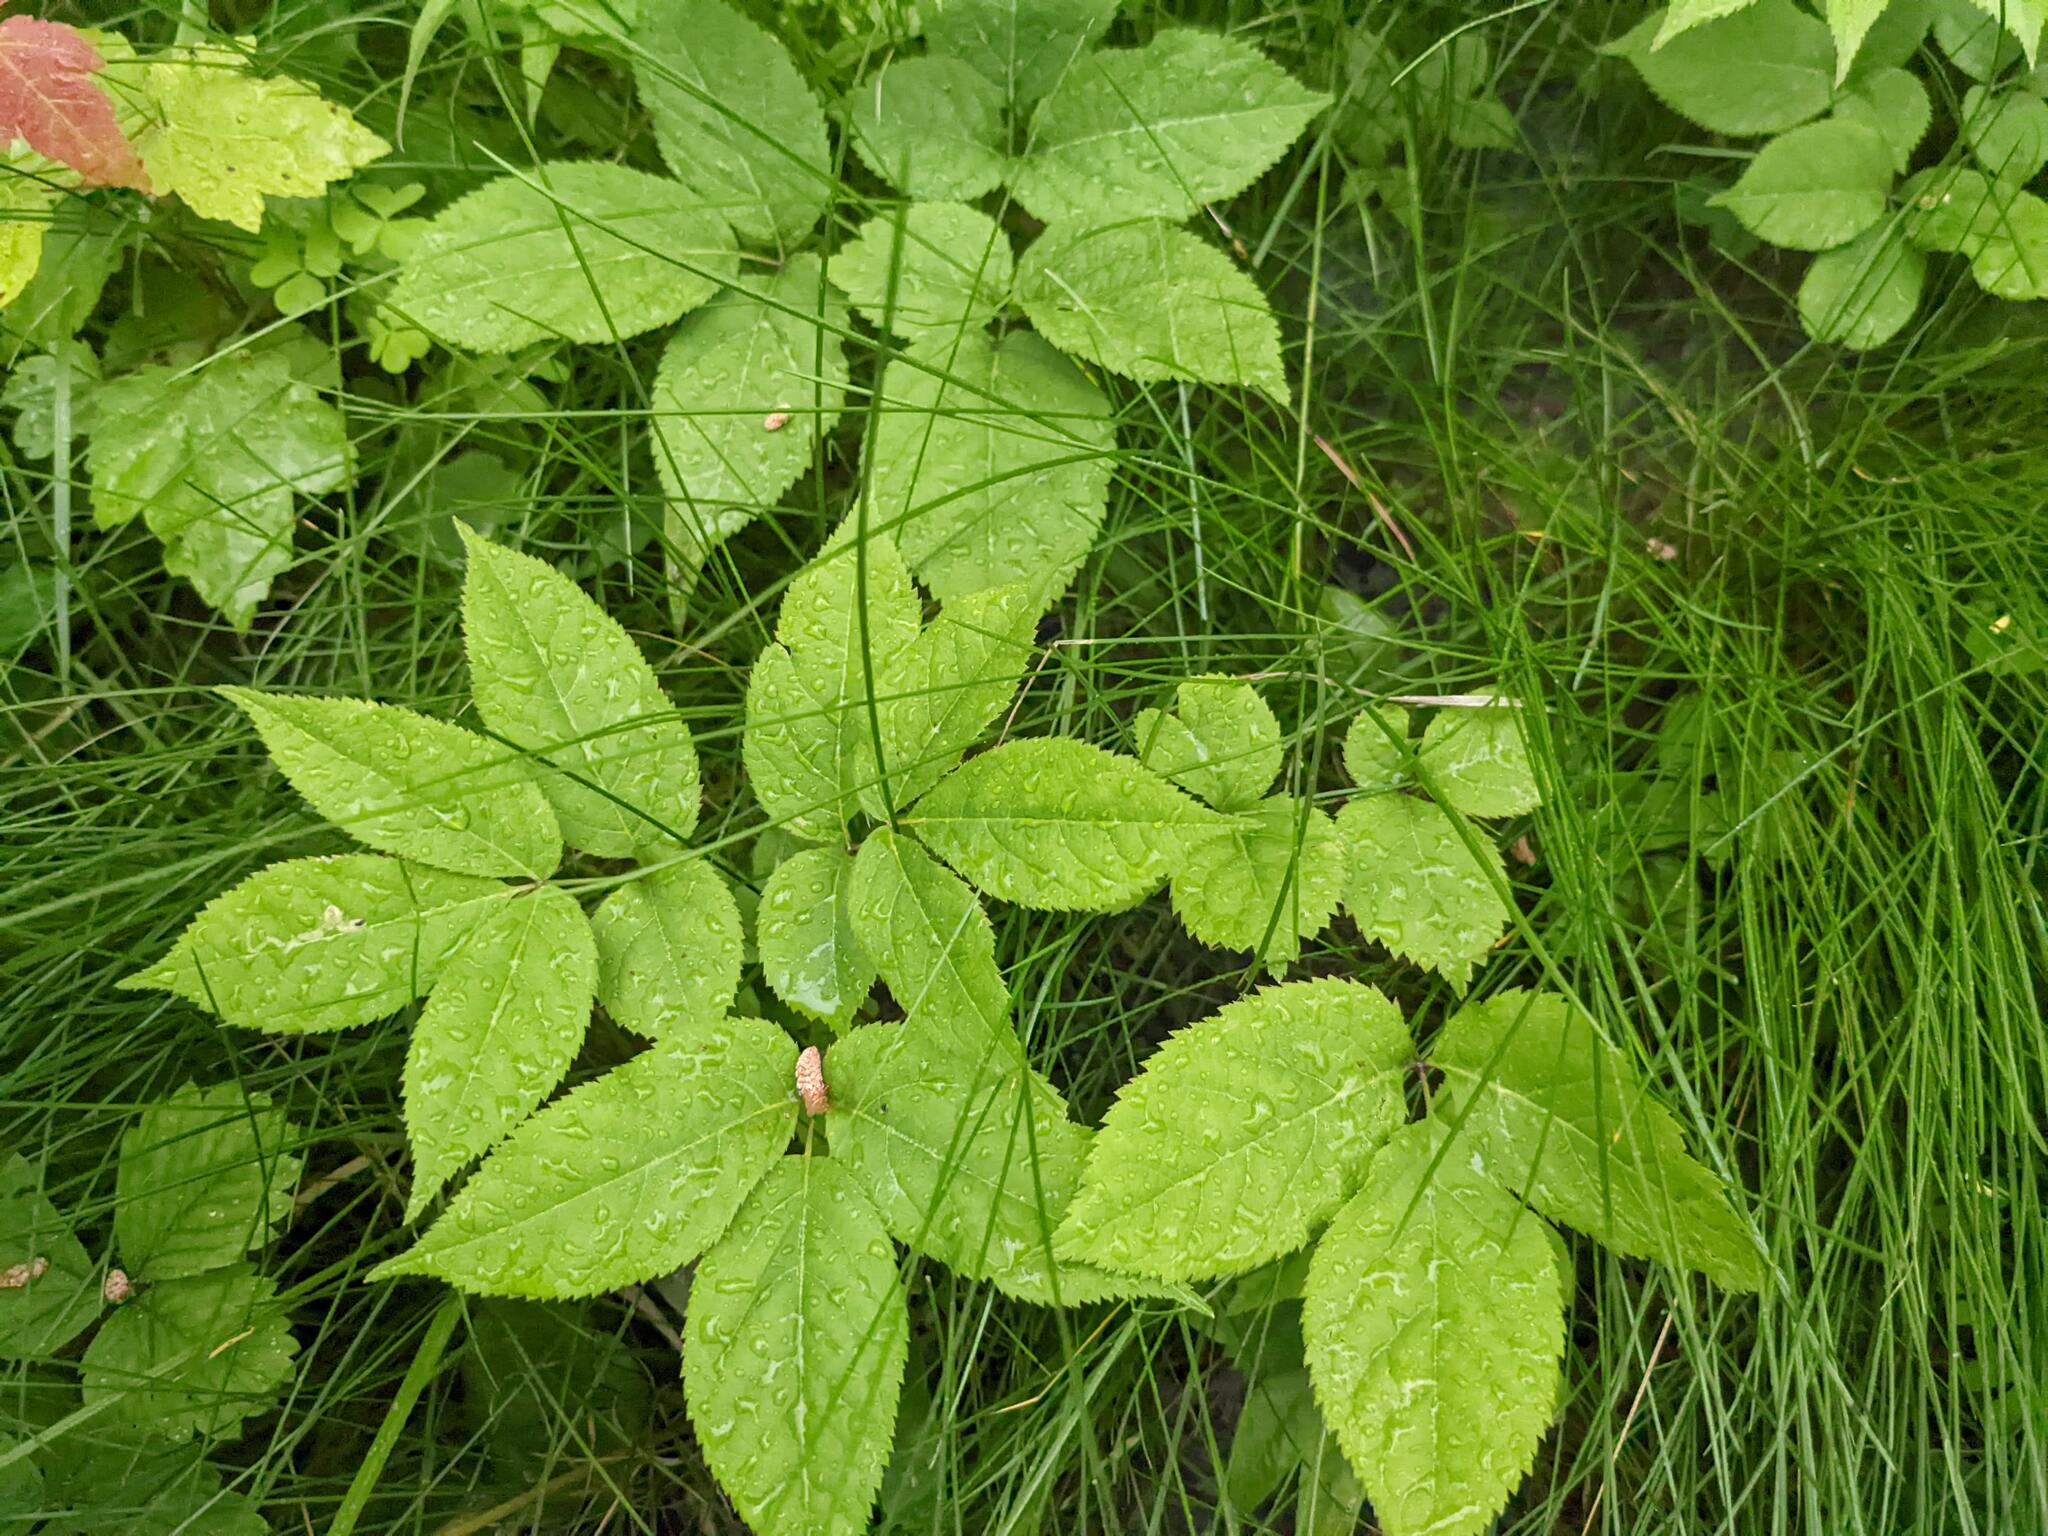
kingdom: Plantae
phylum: Tracheophyta
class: Magnoliopsida
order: Apiales
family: Araliaceae
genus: Aralia
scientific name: Aralia nudicaulis
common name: Wild sarsaparilla
